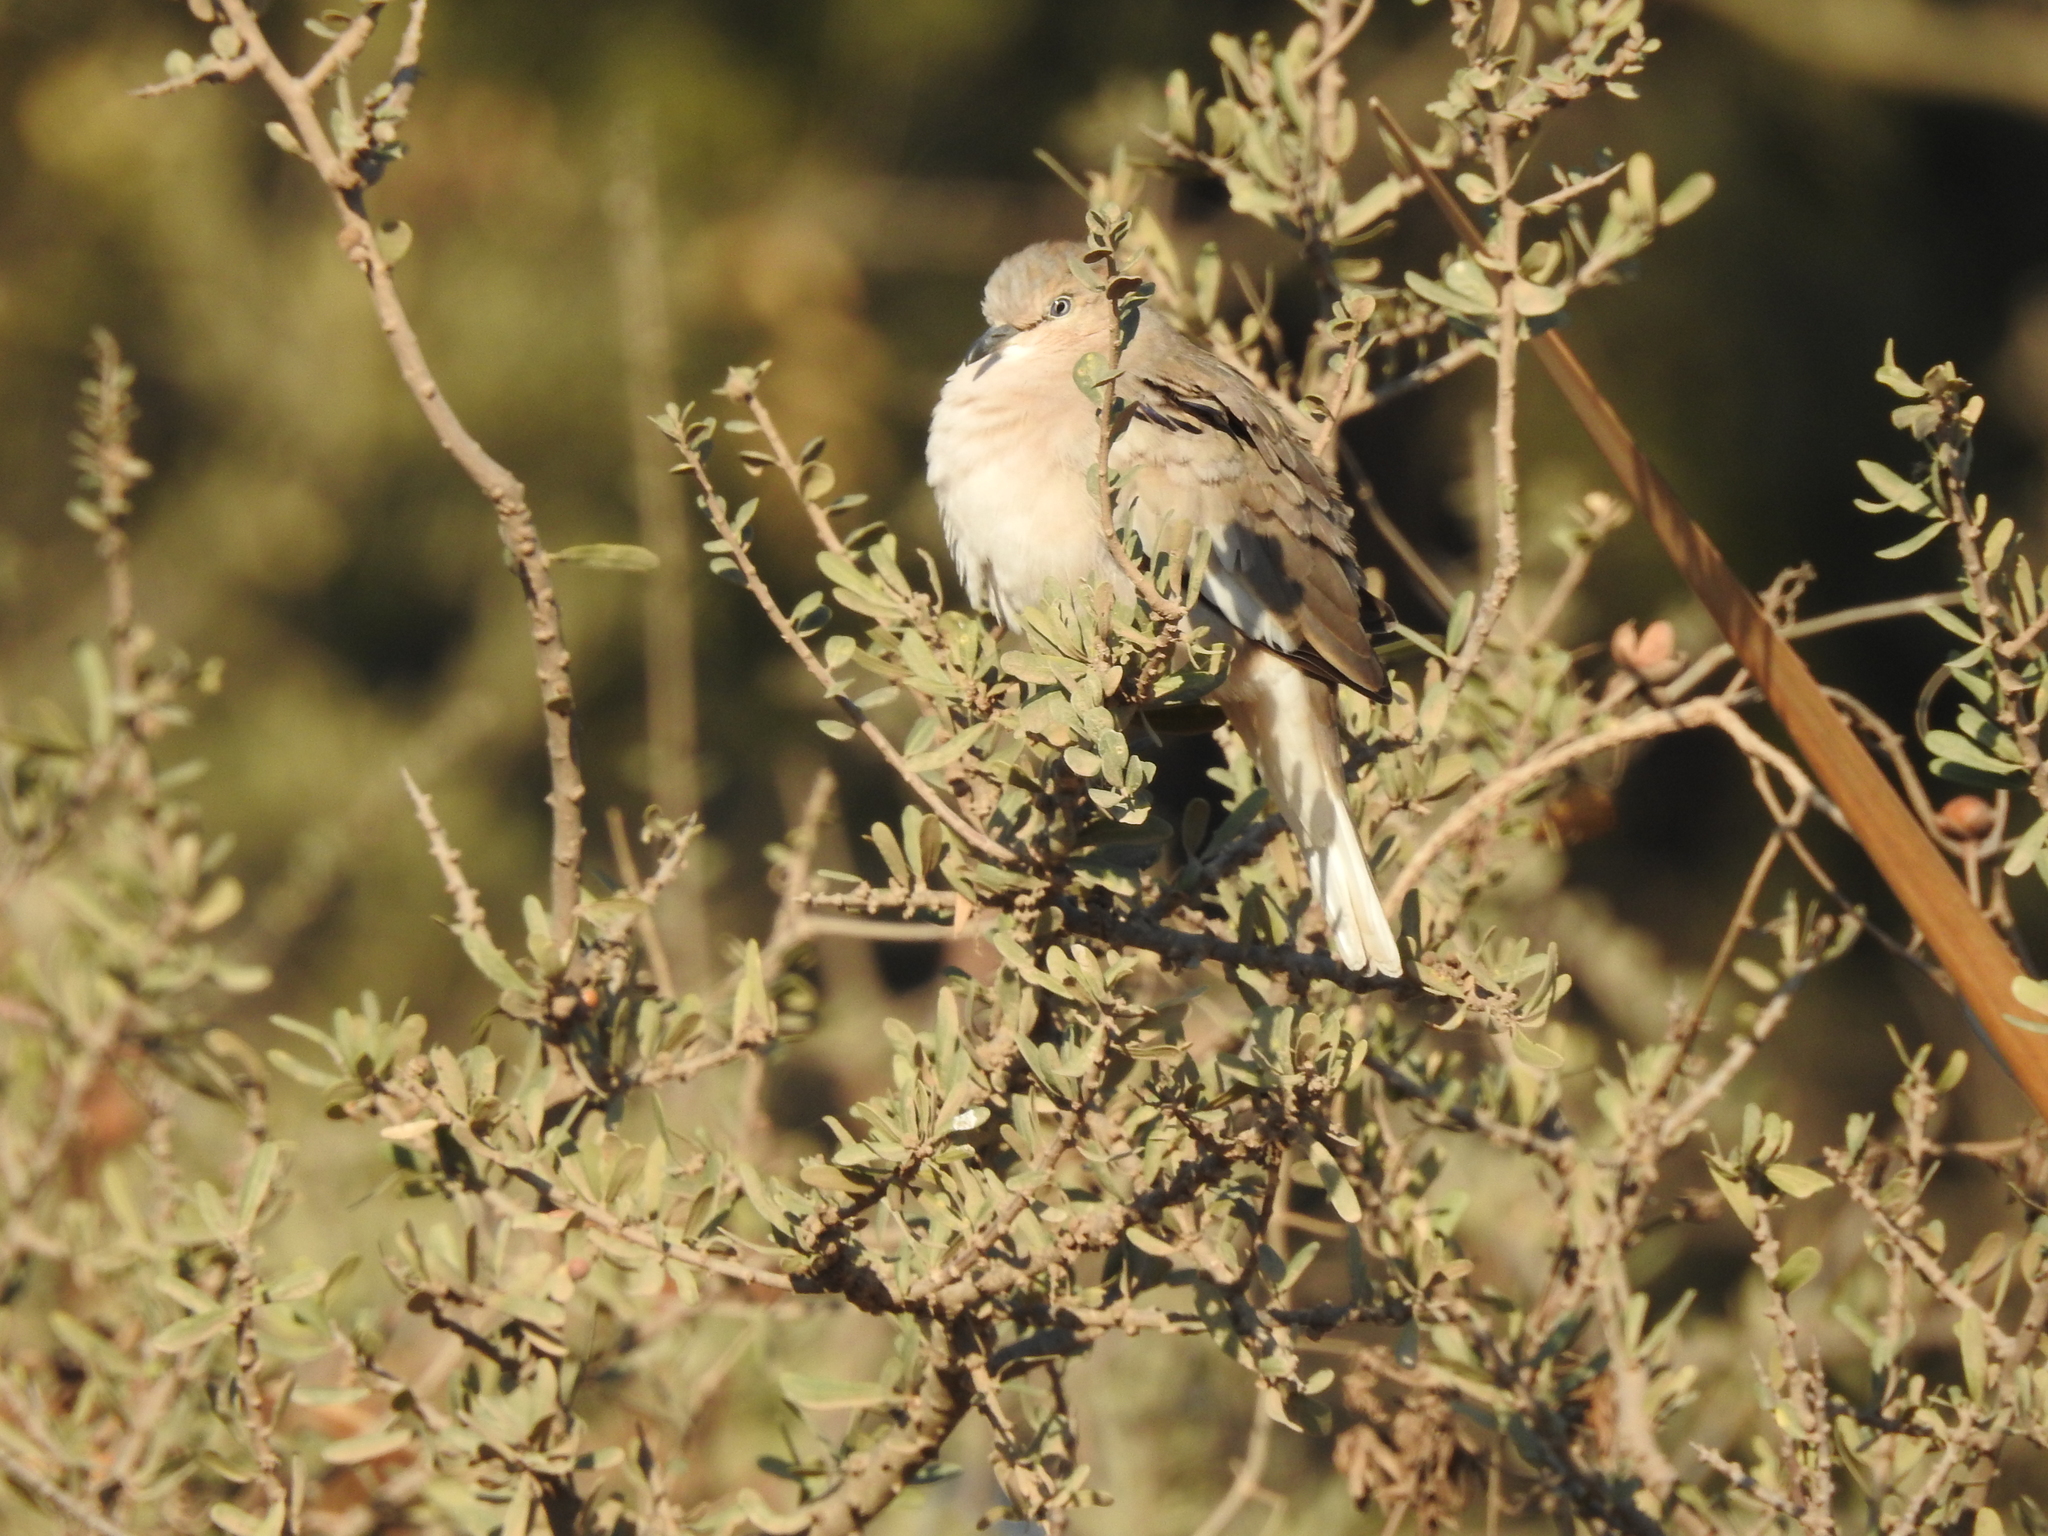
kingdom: Animalia
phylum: Chordata
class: Aves
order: Columbiformes
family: Columbidae
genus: Columbina
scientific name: Columbina picui
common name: Picui ground dove
